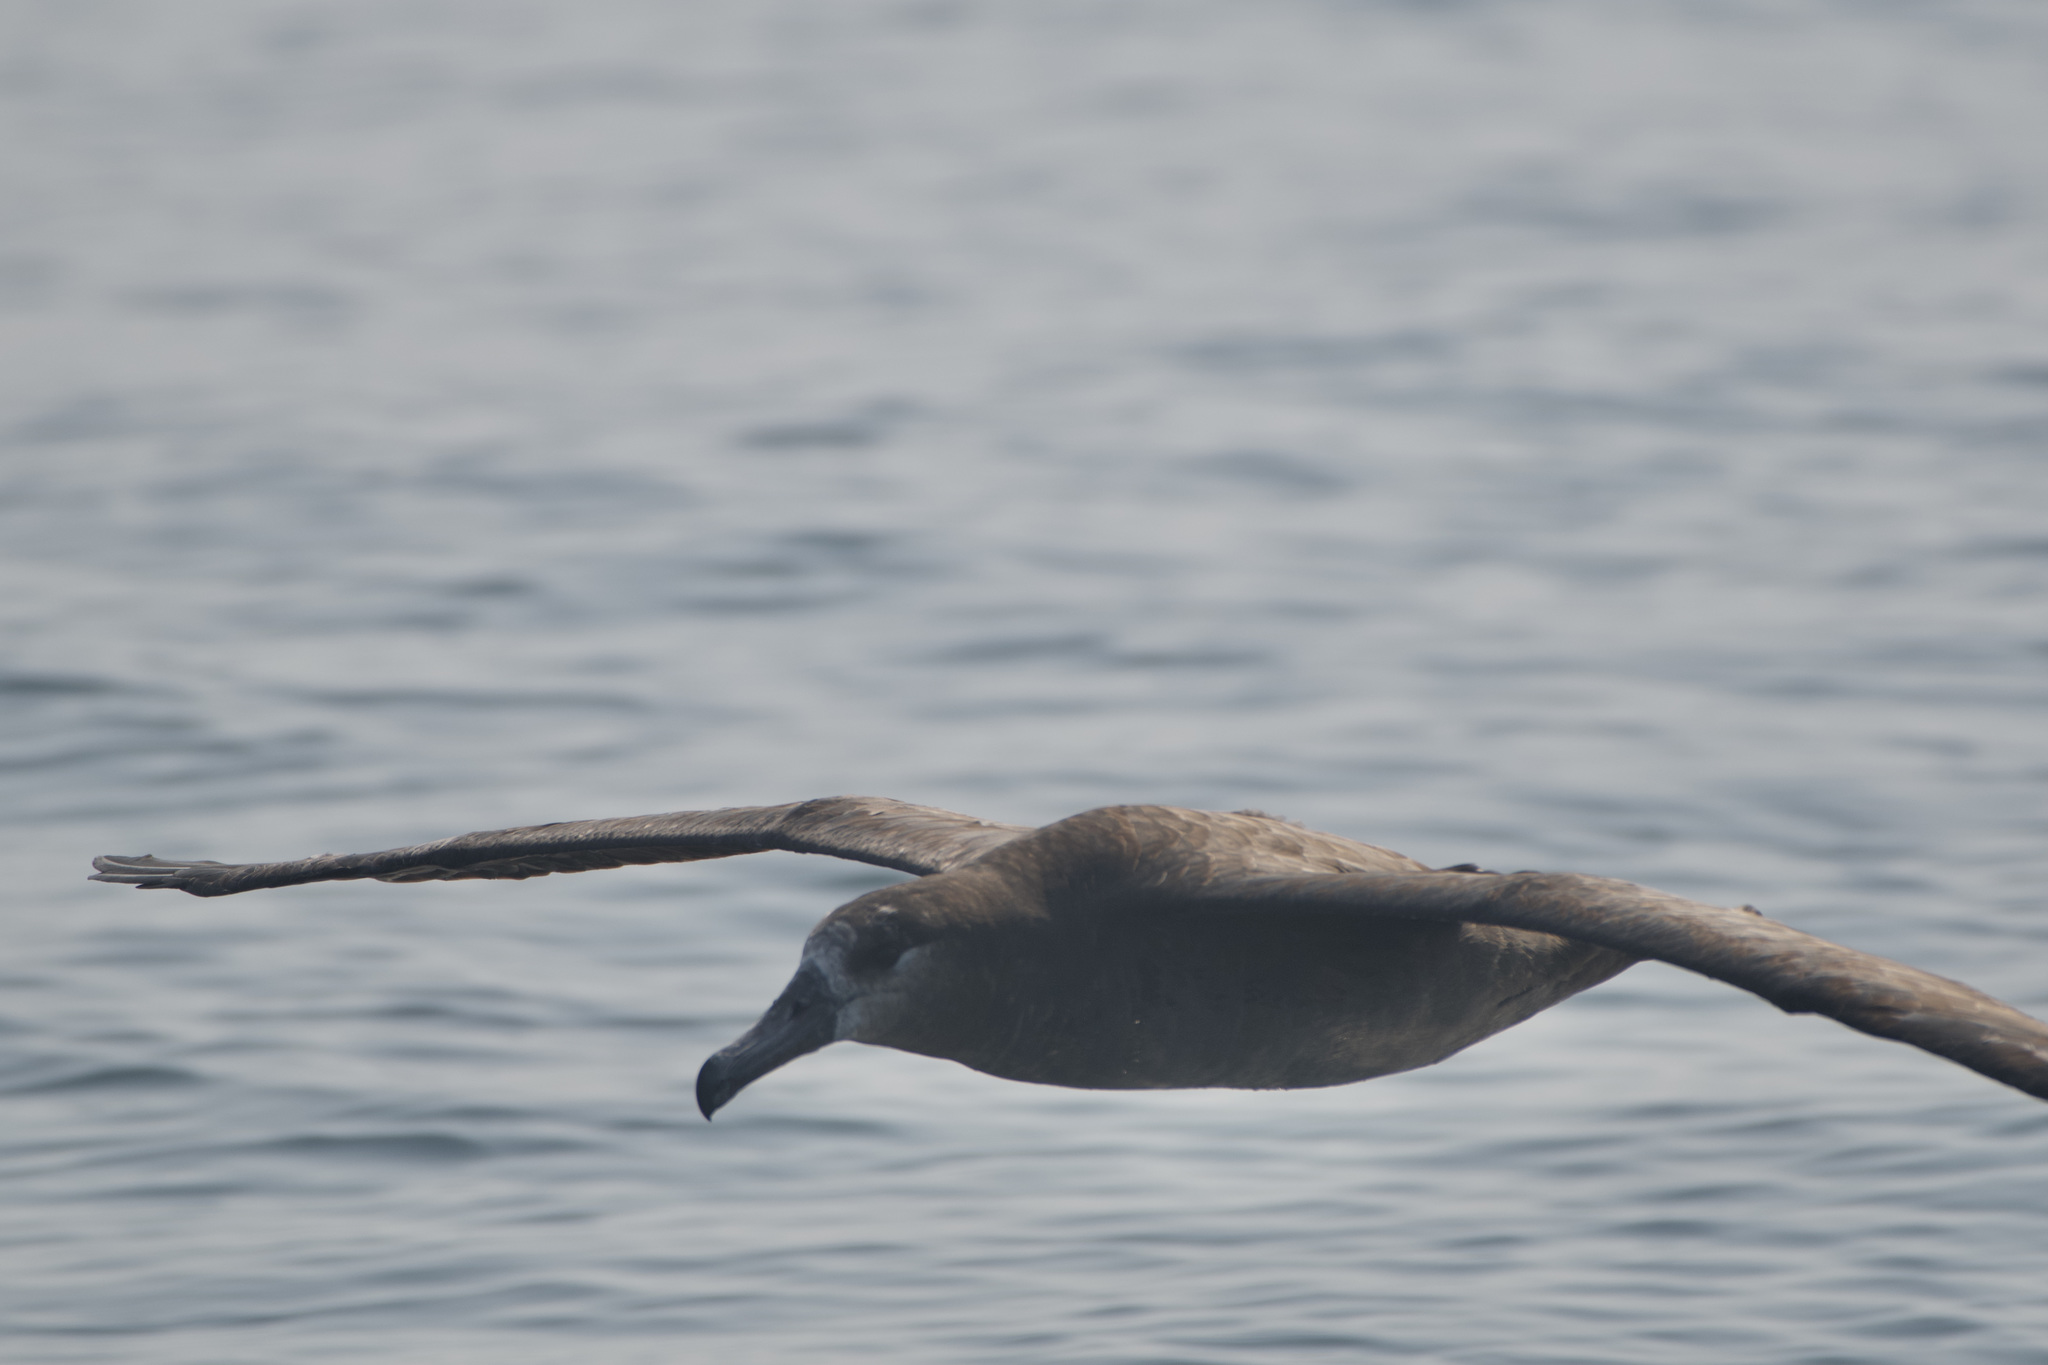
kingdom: Animalia
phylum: Chordata
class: Aves
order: Procellariiformes
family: Diomedeidae
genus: Phoebastria
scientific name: Phoebastria nigripes
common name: Black-footed albatross
